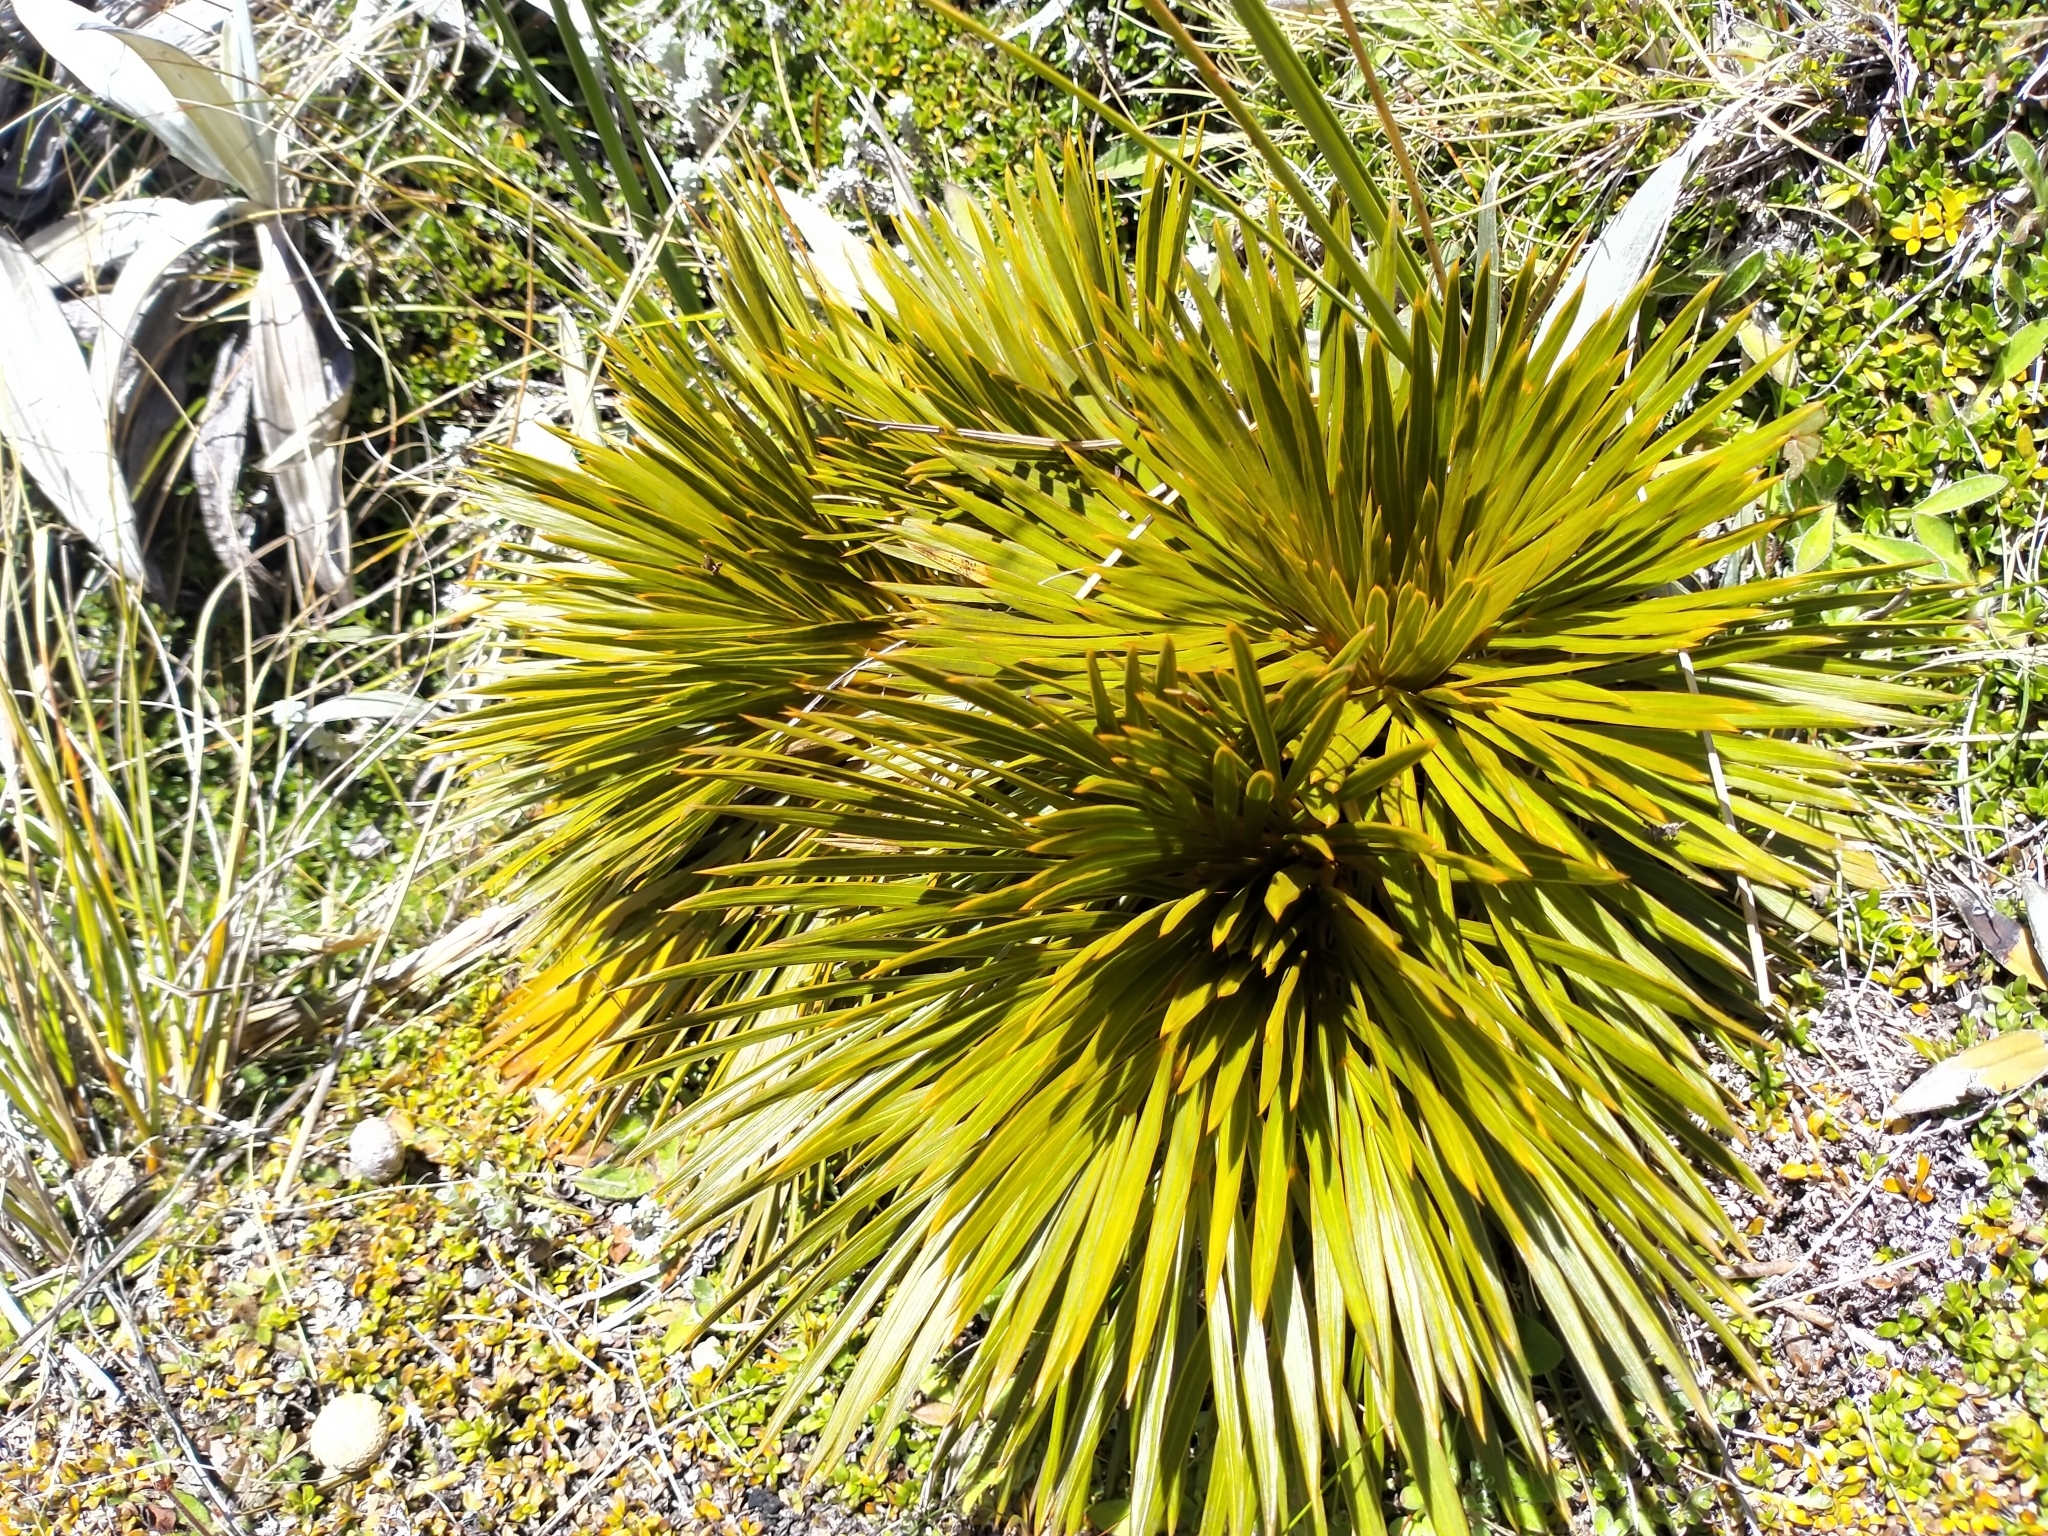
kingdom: Plantae
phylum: Tracheophyta
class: Magnoliopsida
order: Apiales
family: Apiaceae
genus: Aciphylla
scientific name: Aciphylla lecomtei
